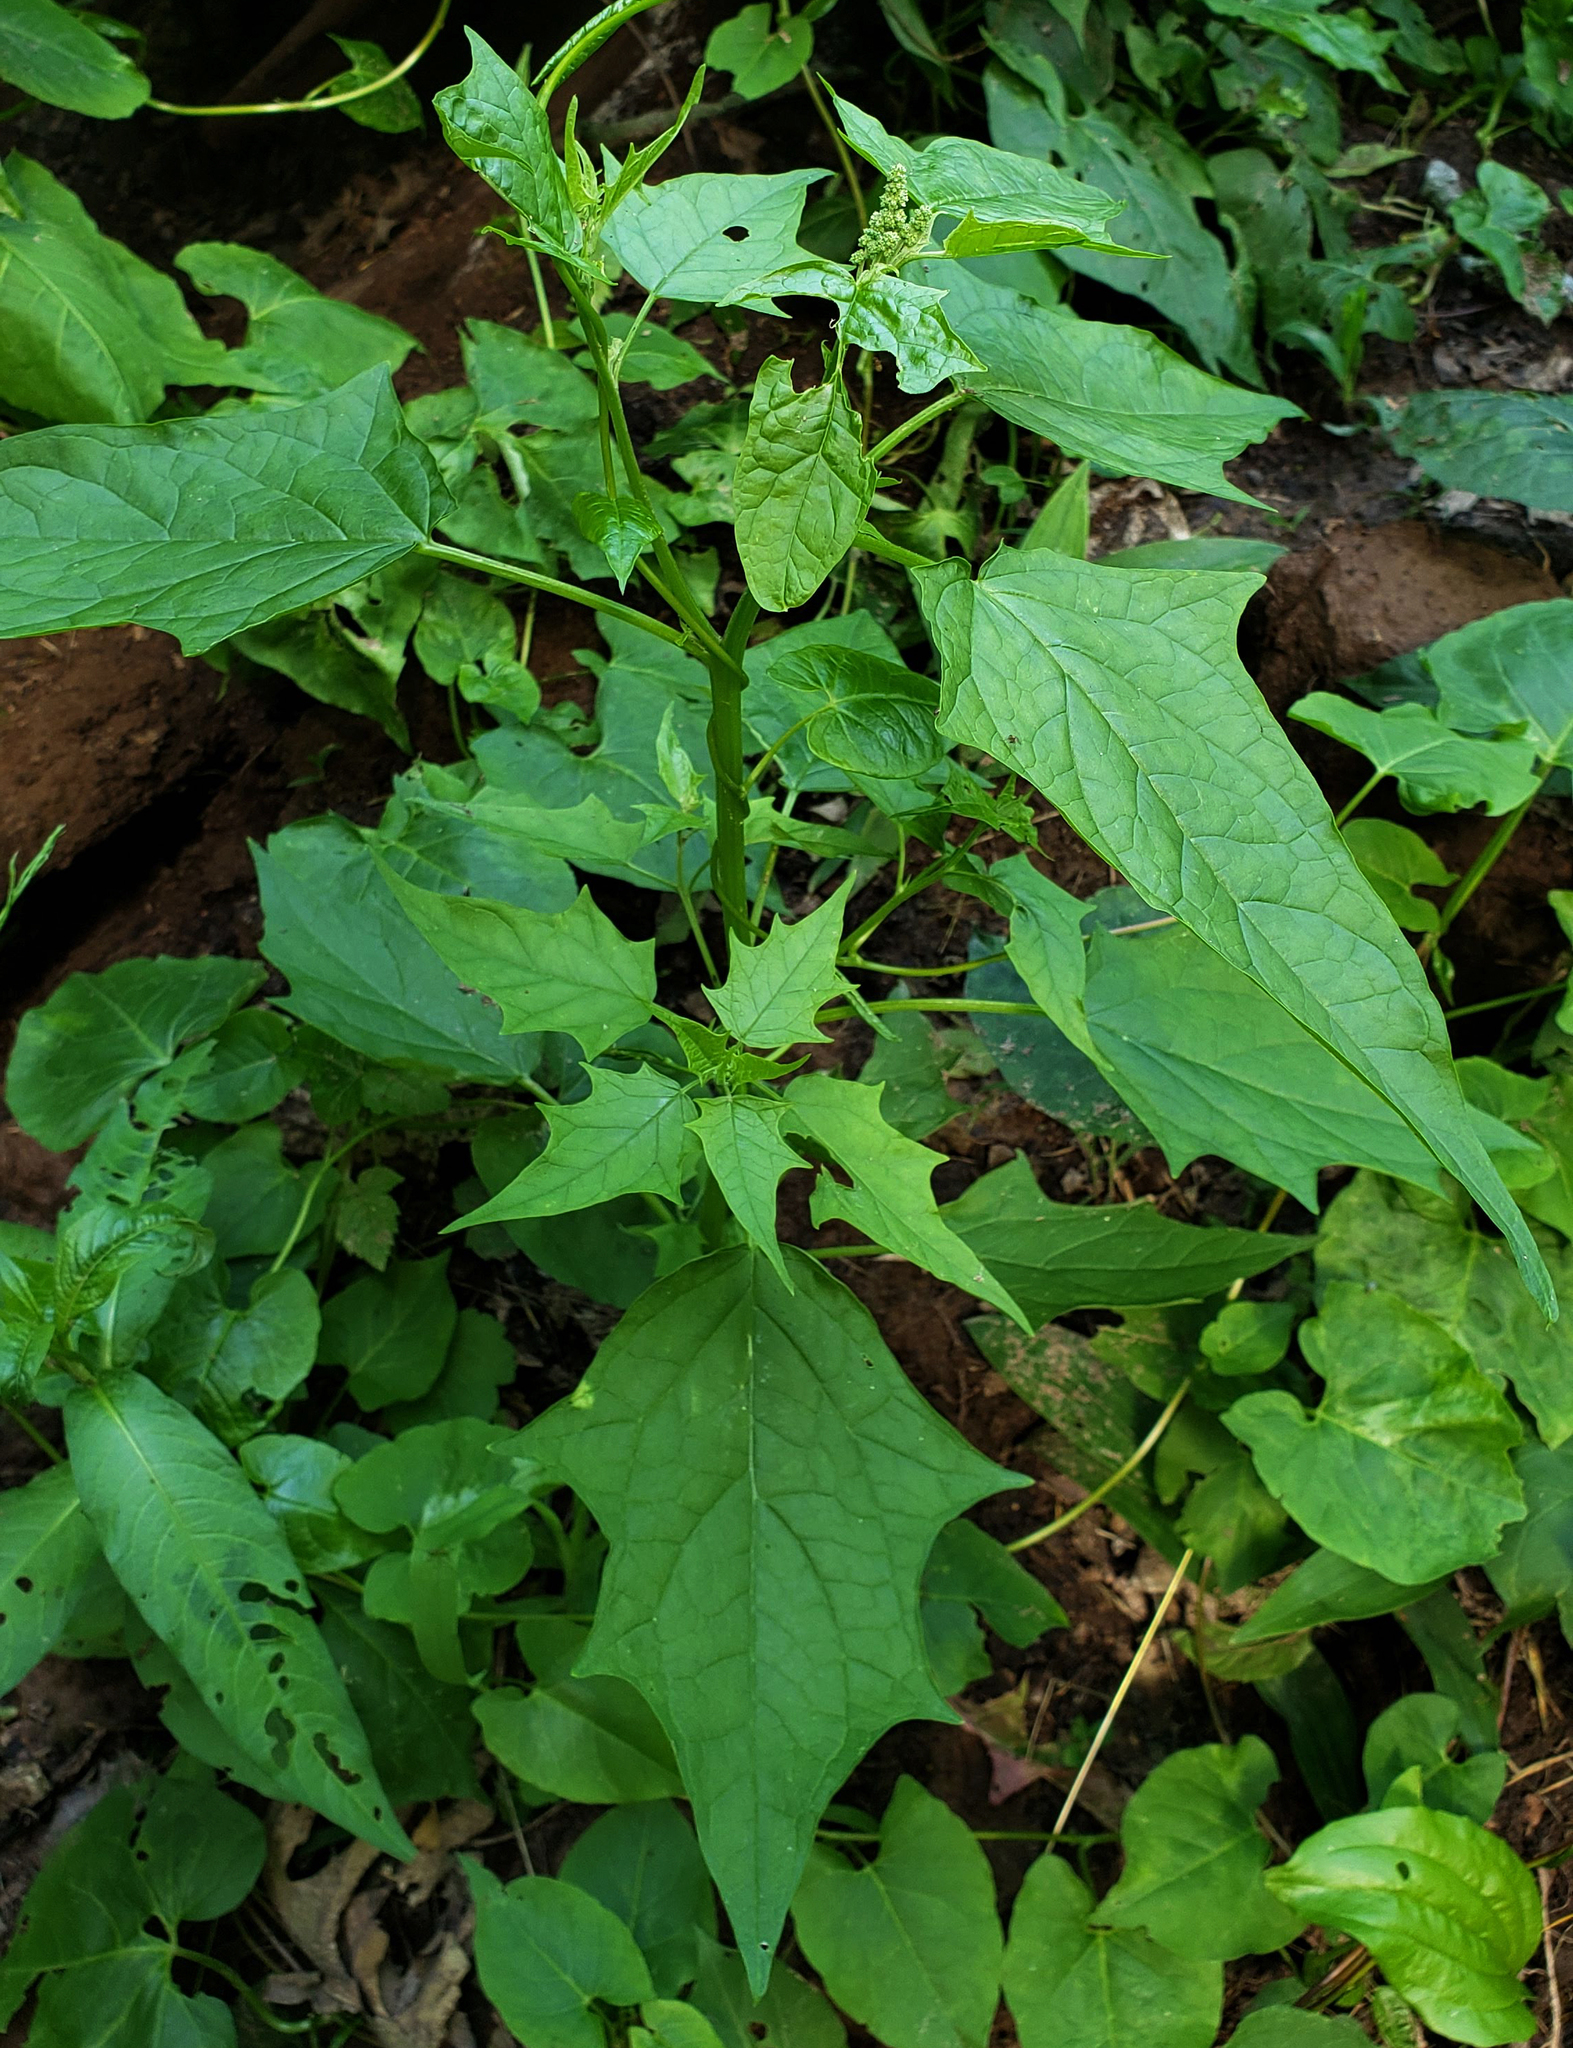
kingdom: Plantae
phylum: Tracheophyta
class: Magnoliopsida
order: Caryophyllales
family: Amaranthaceae
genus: Chenopodiastrum
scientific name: Chenopodiastrum simplex
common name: Large-seed goosefoot
